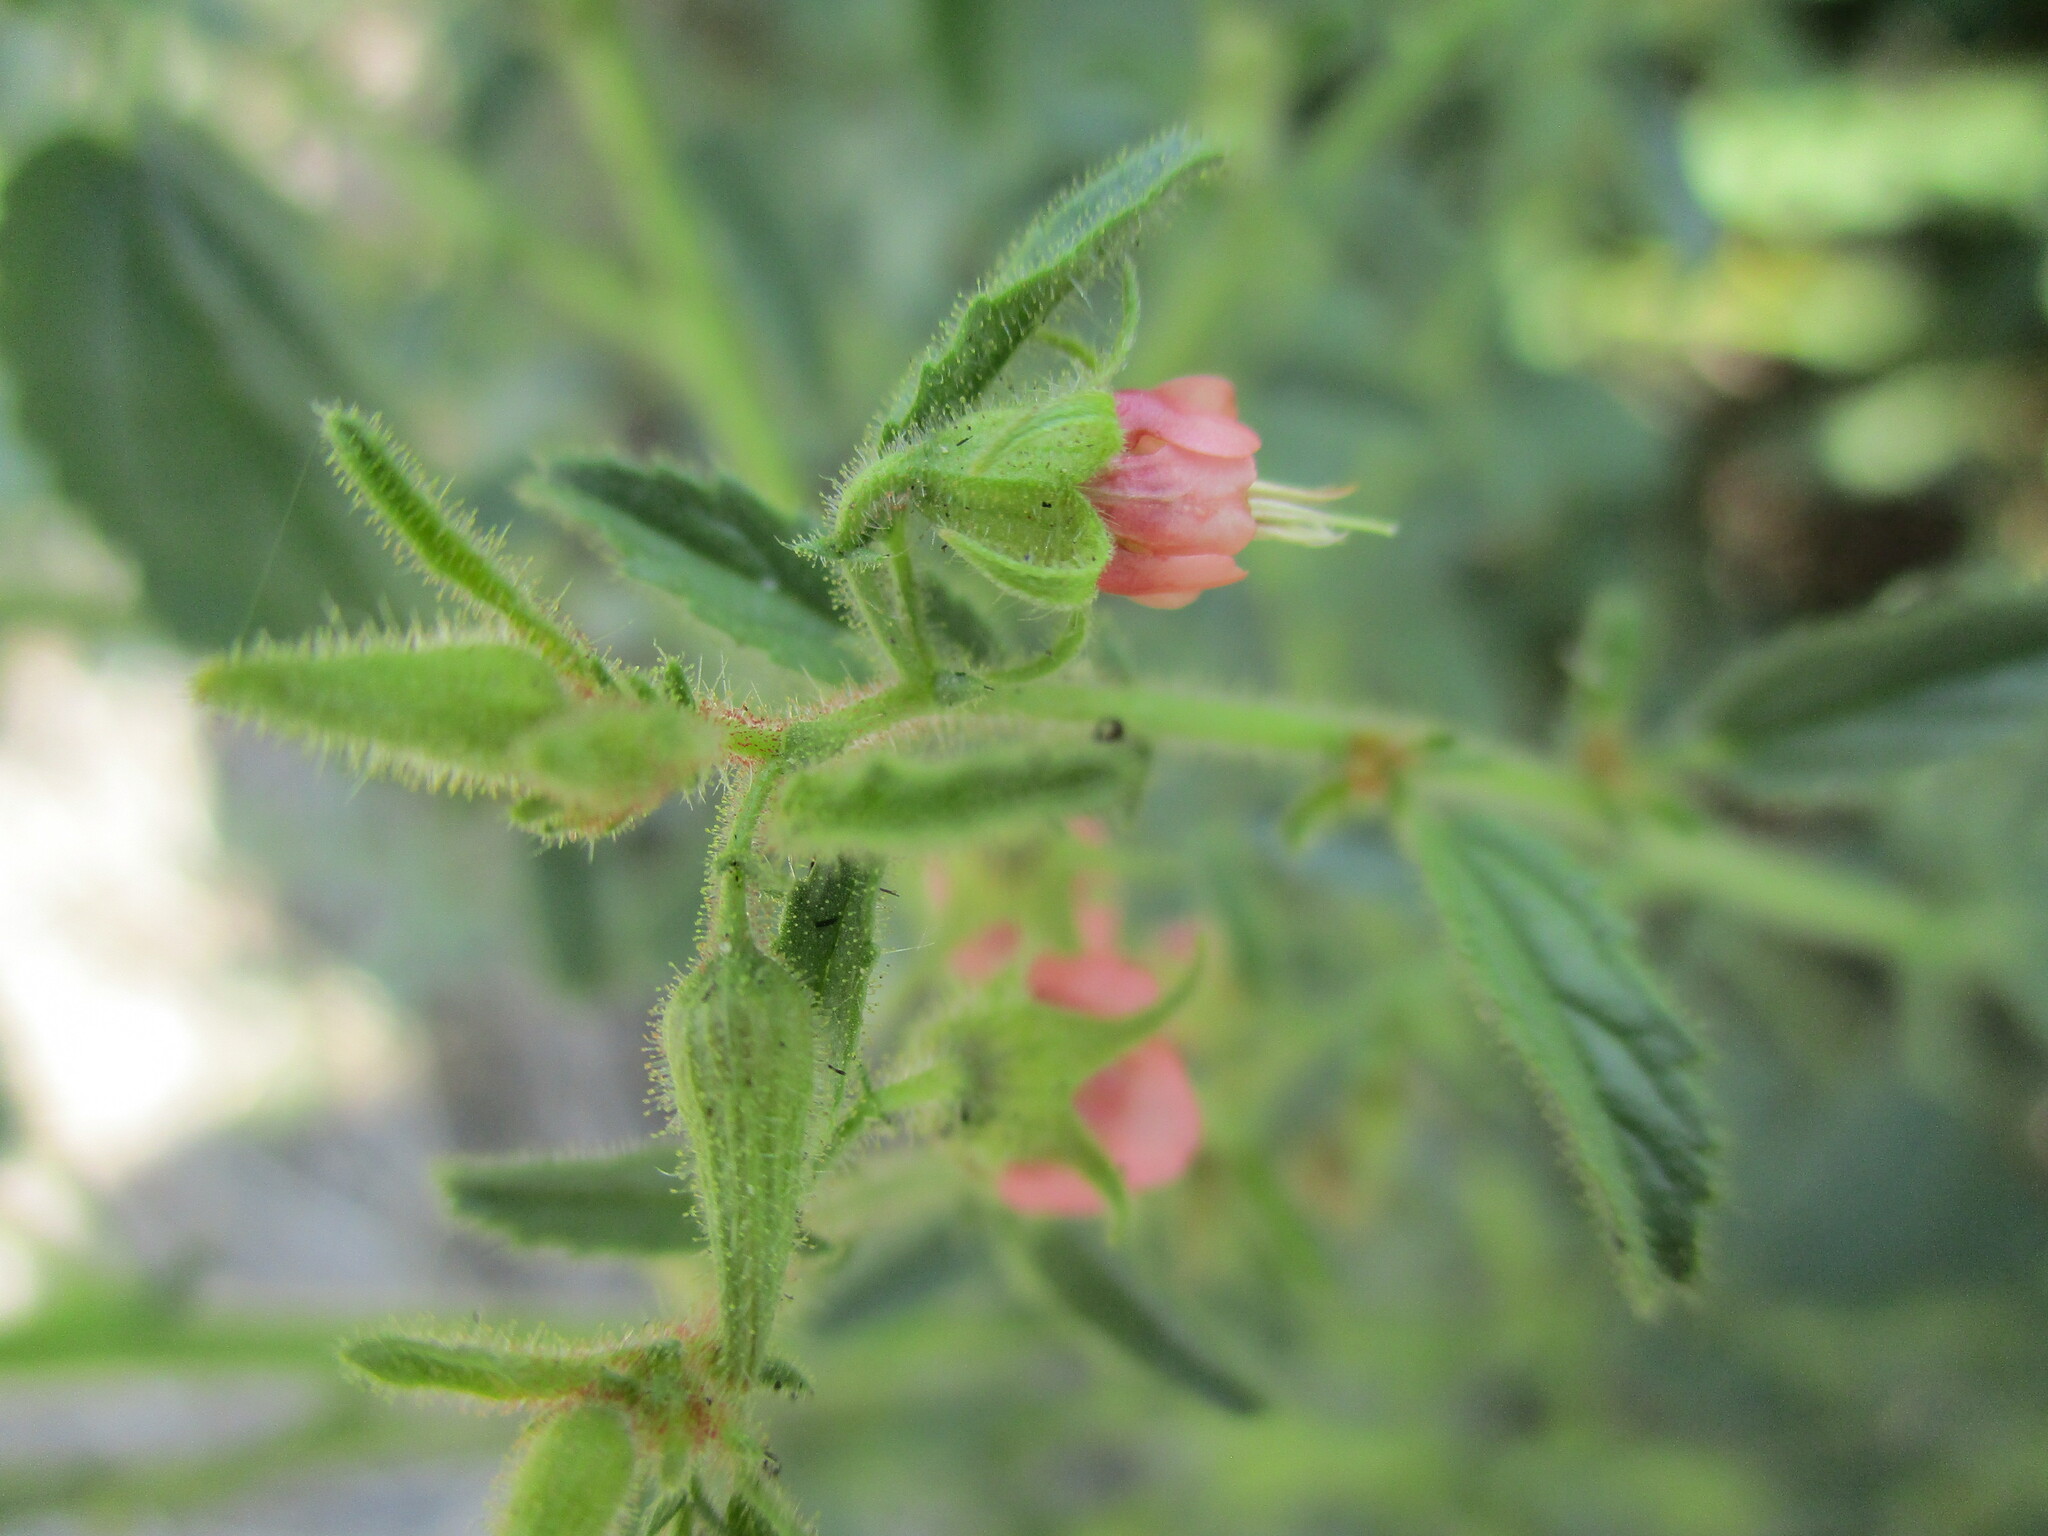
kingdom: Plantae
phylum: Tracheophyta
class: Magnoliopsida
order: Malvales
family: Malvaceae
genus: Hermannia
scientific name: Hermannia eenii
